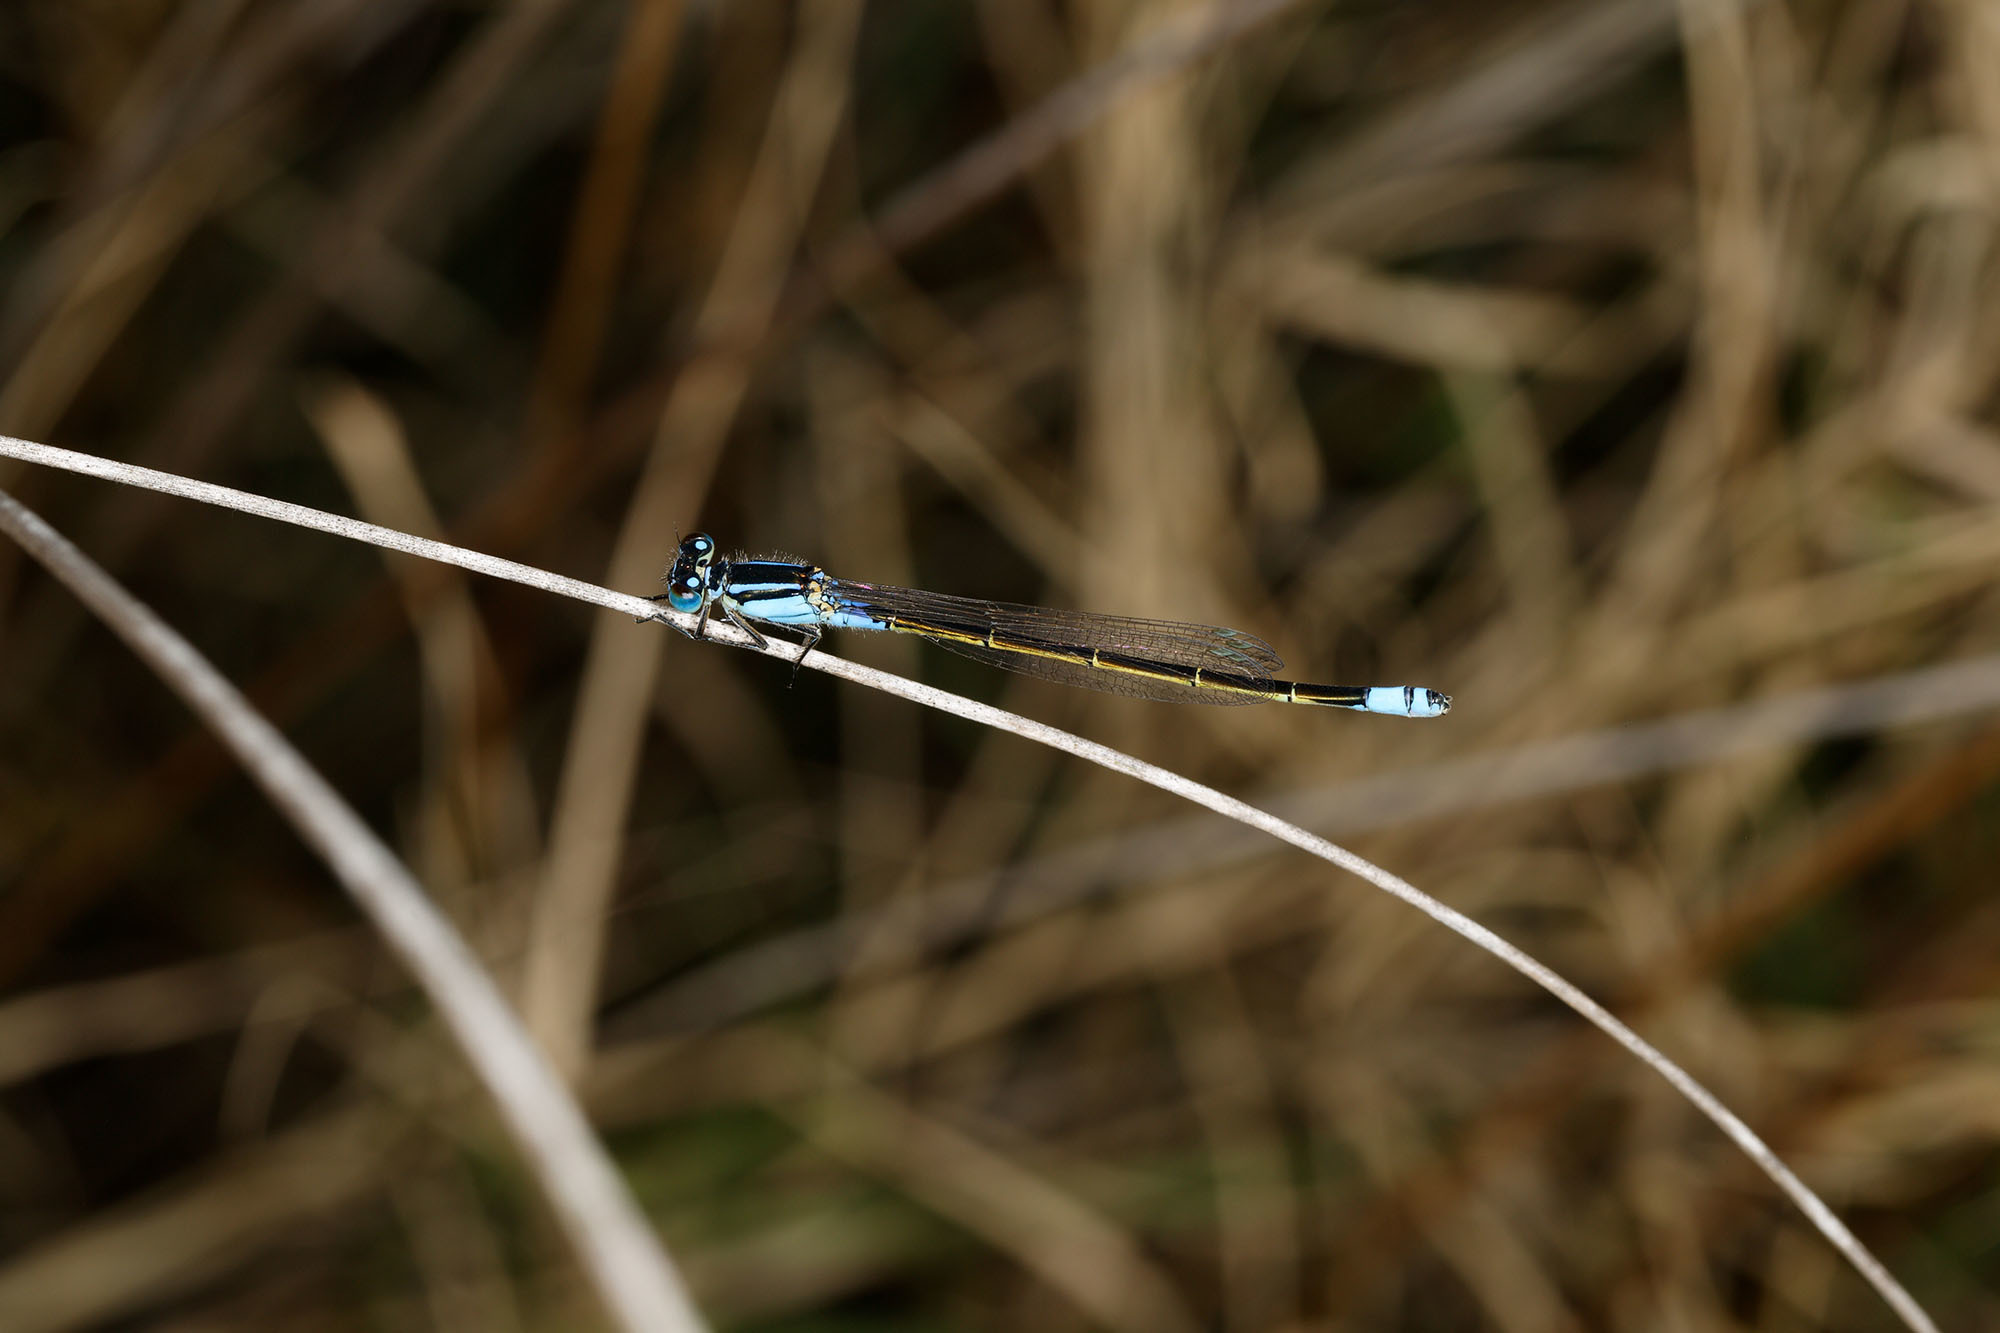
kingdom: Animalia
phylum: Arthropoda
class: Insecta
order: Odonata
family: Coenagrionidae
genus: Ischnura
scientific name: Ischnura heterosticta
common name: Common bluetail
